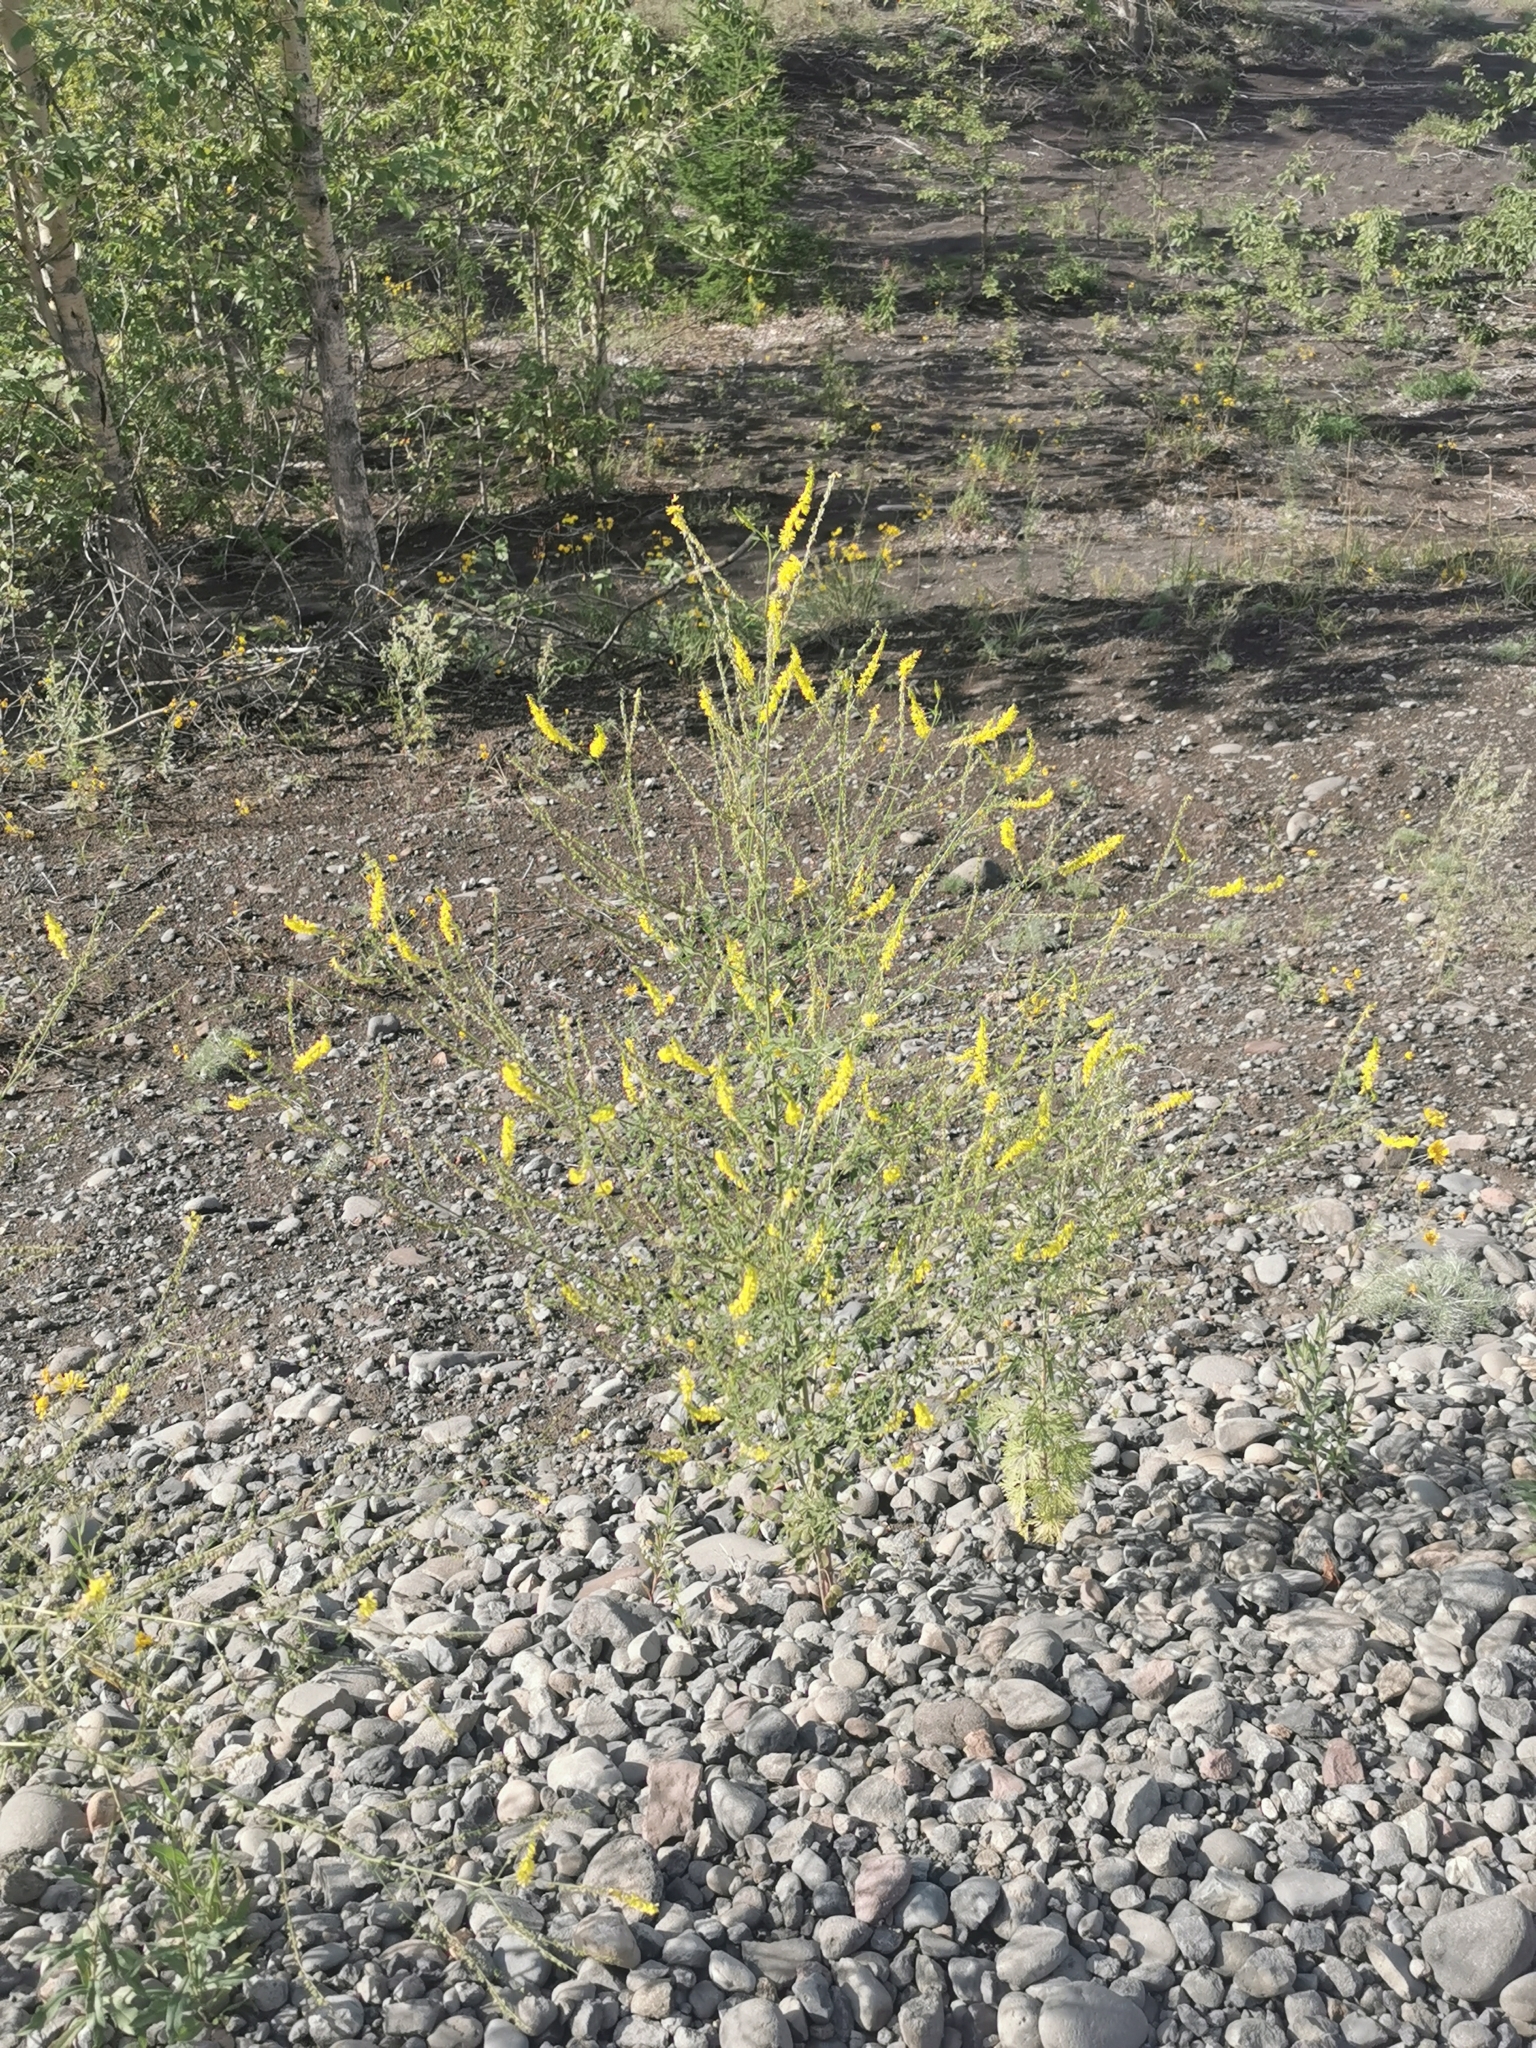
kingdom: Plantae
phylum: Tracheophyta
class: Magnoliopsida
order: Fabales
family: Fabaceae
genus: Melilotus
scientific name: Melilotus officinalis
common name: Sweetclover
